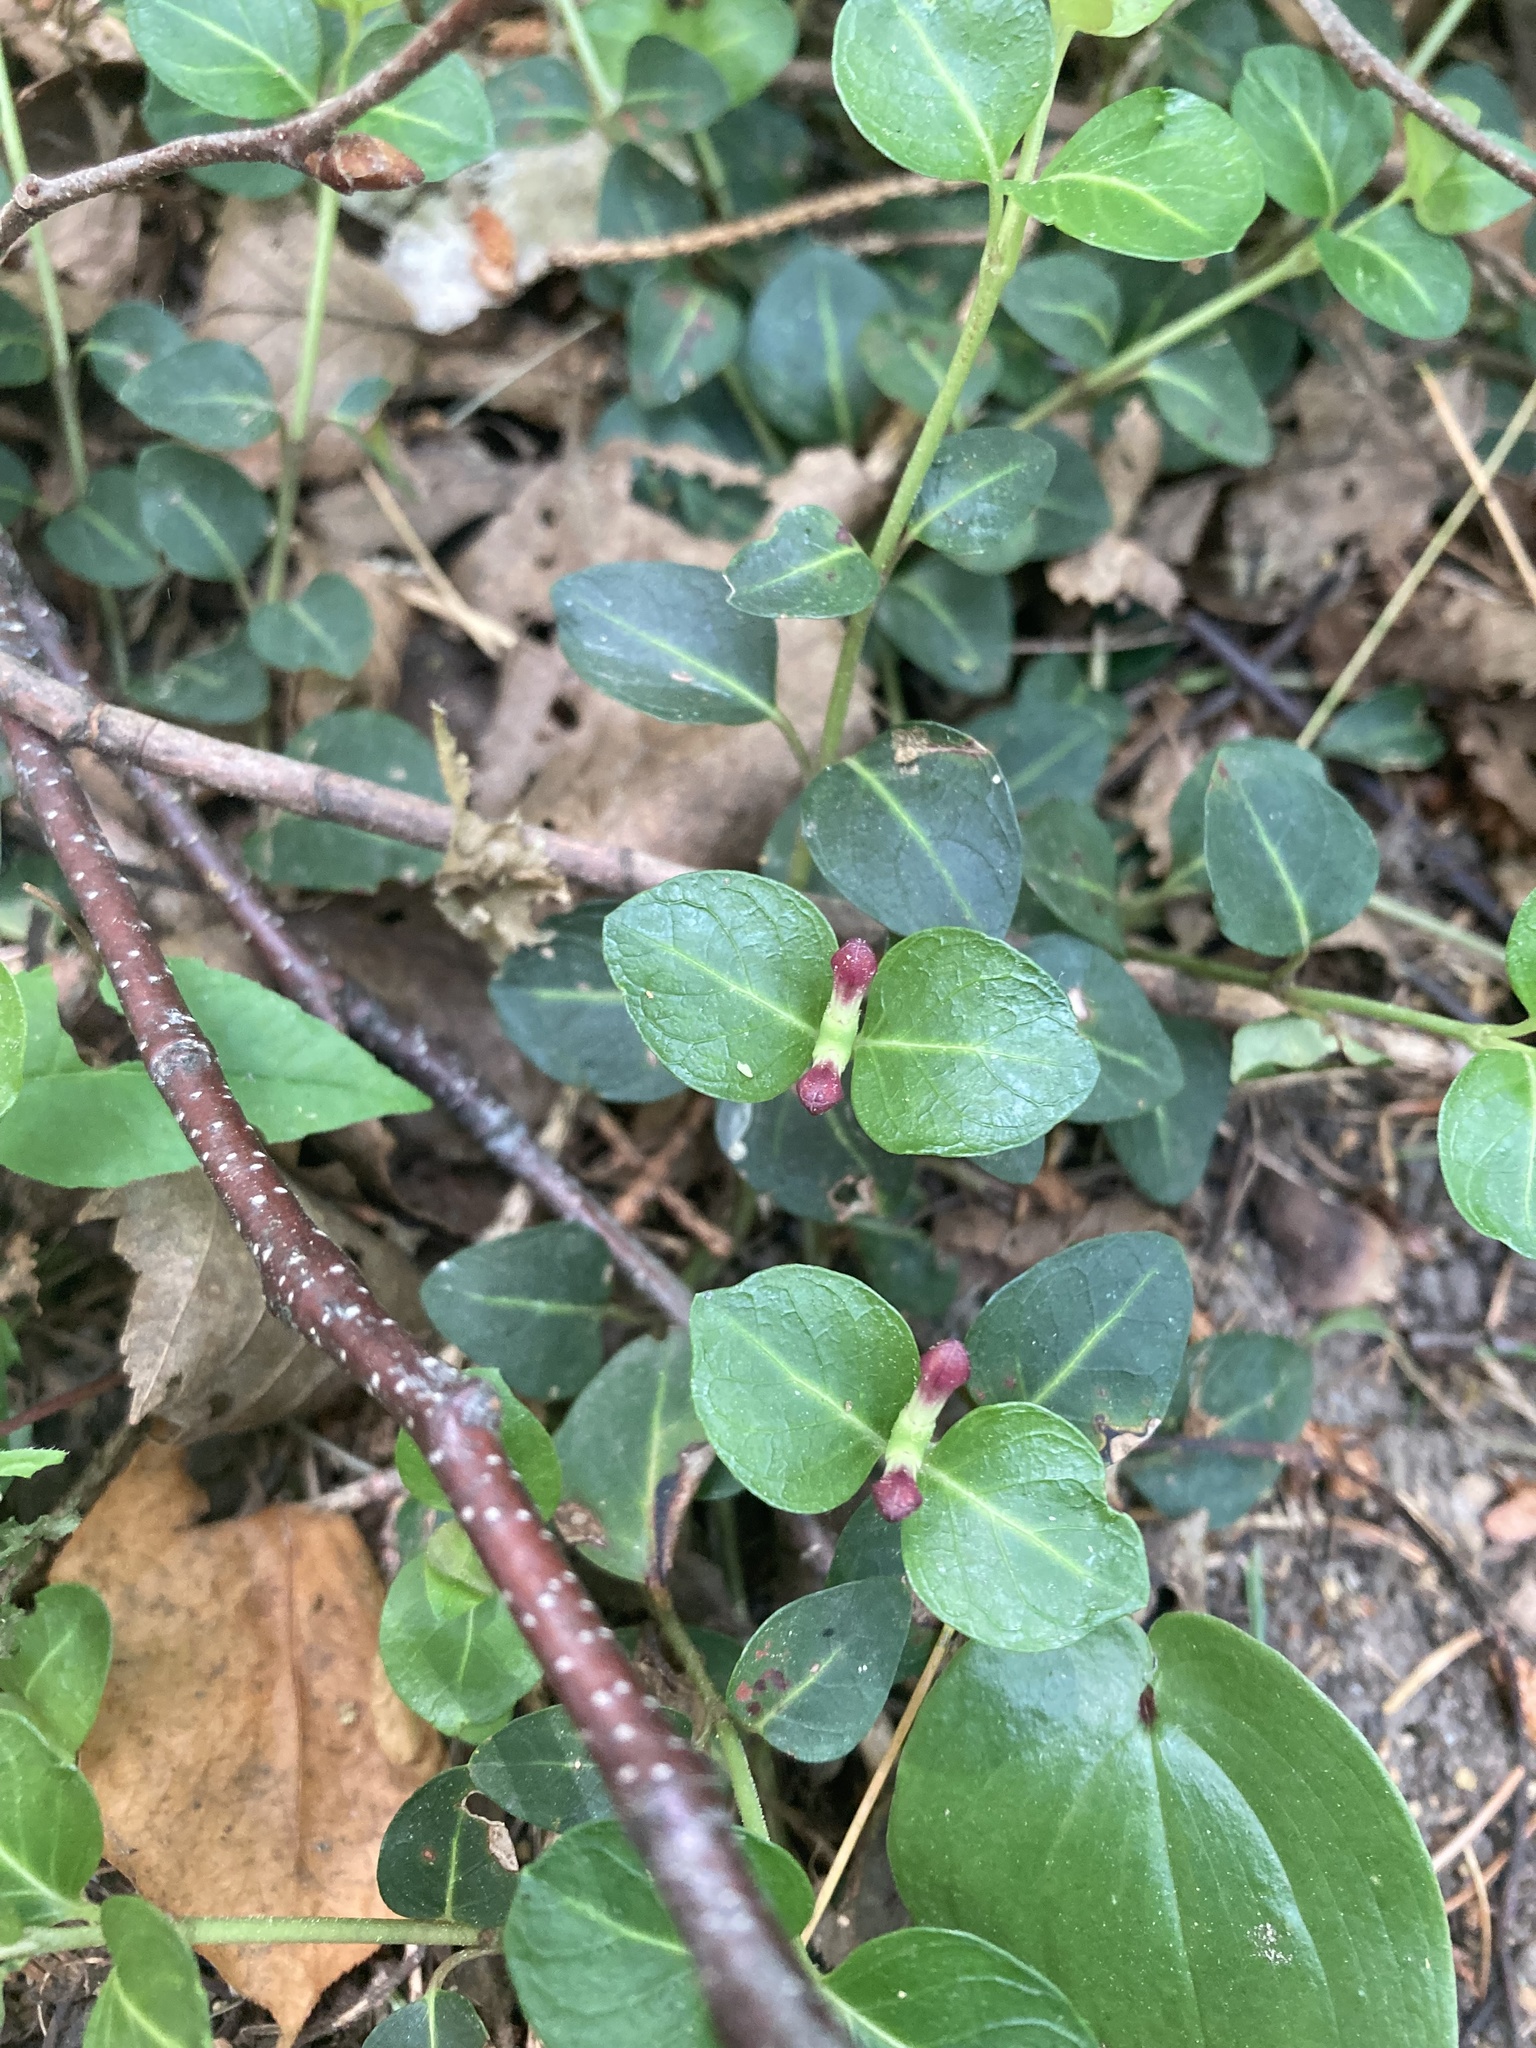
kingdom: Plantae
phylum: Tracheophyta
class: Magnoliopsida
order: Gentianales
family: Rubiaceae
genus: Mitchella
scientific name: Mitchella repens
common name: Partridge-berry
